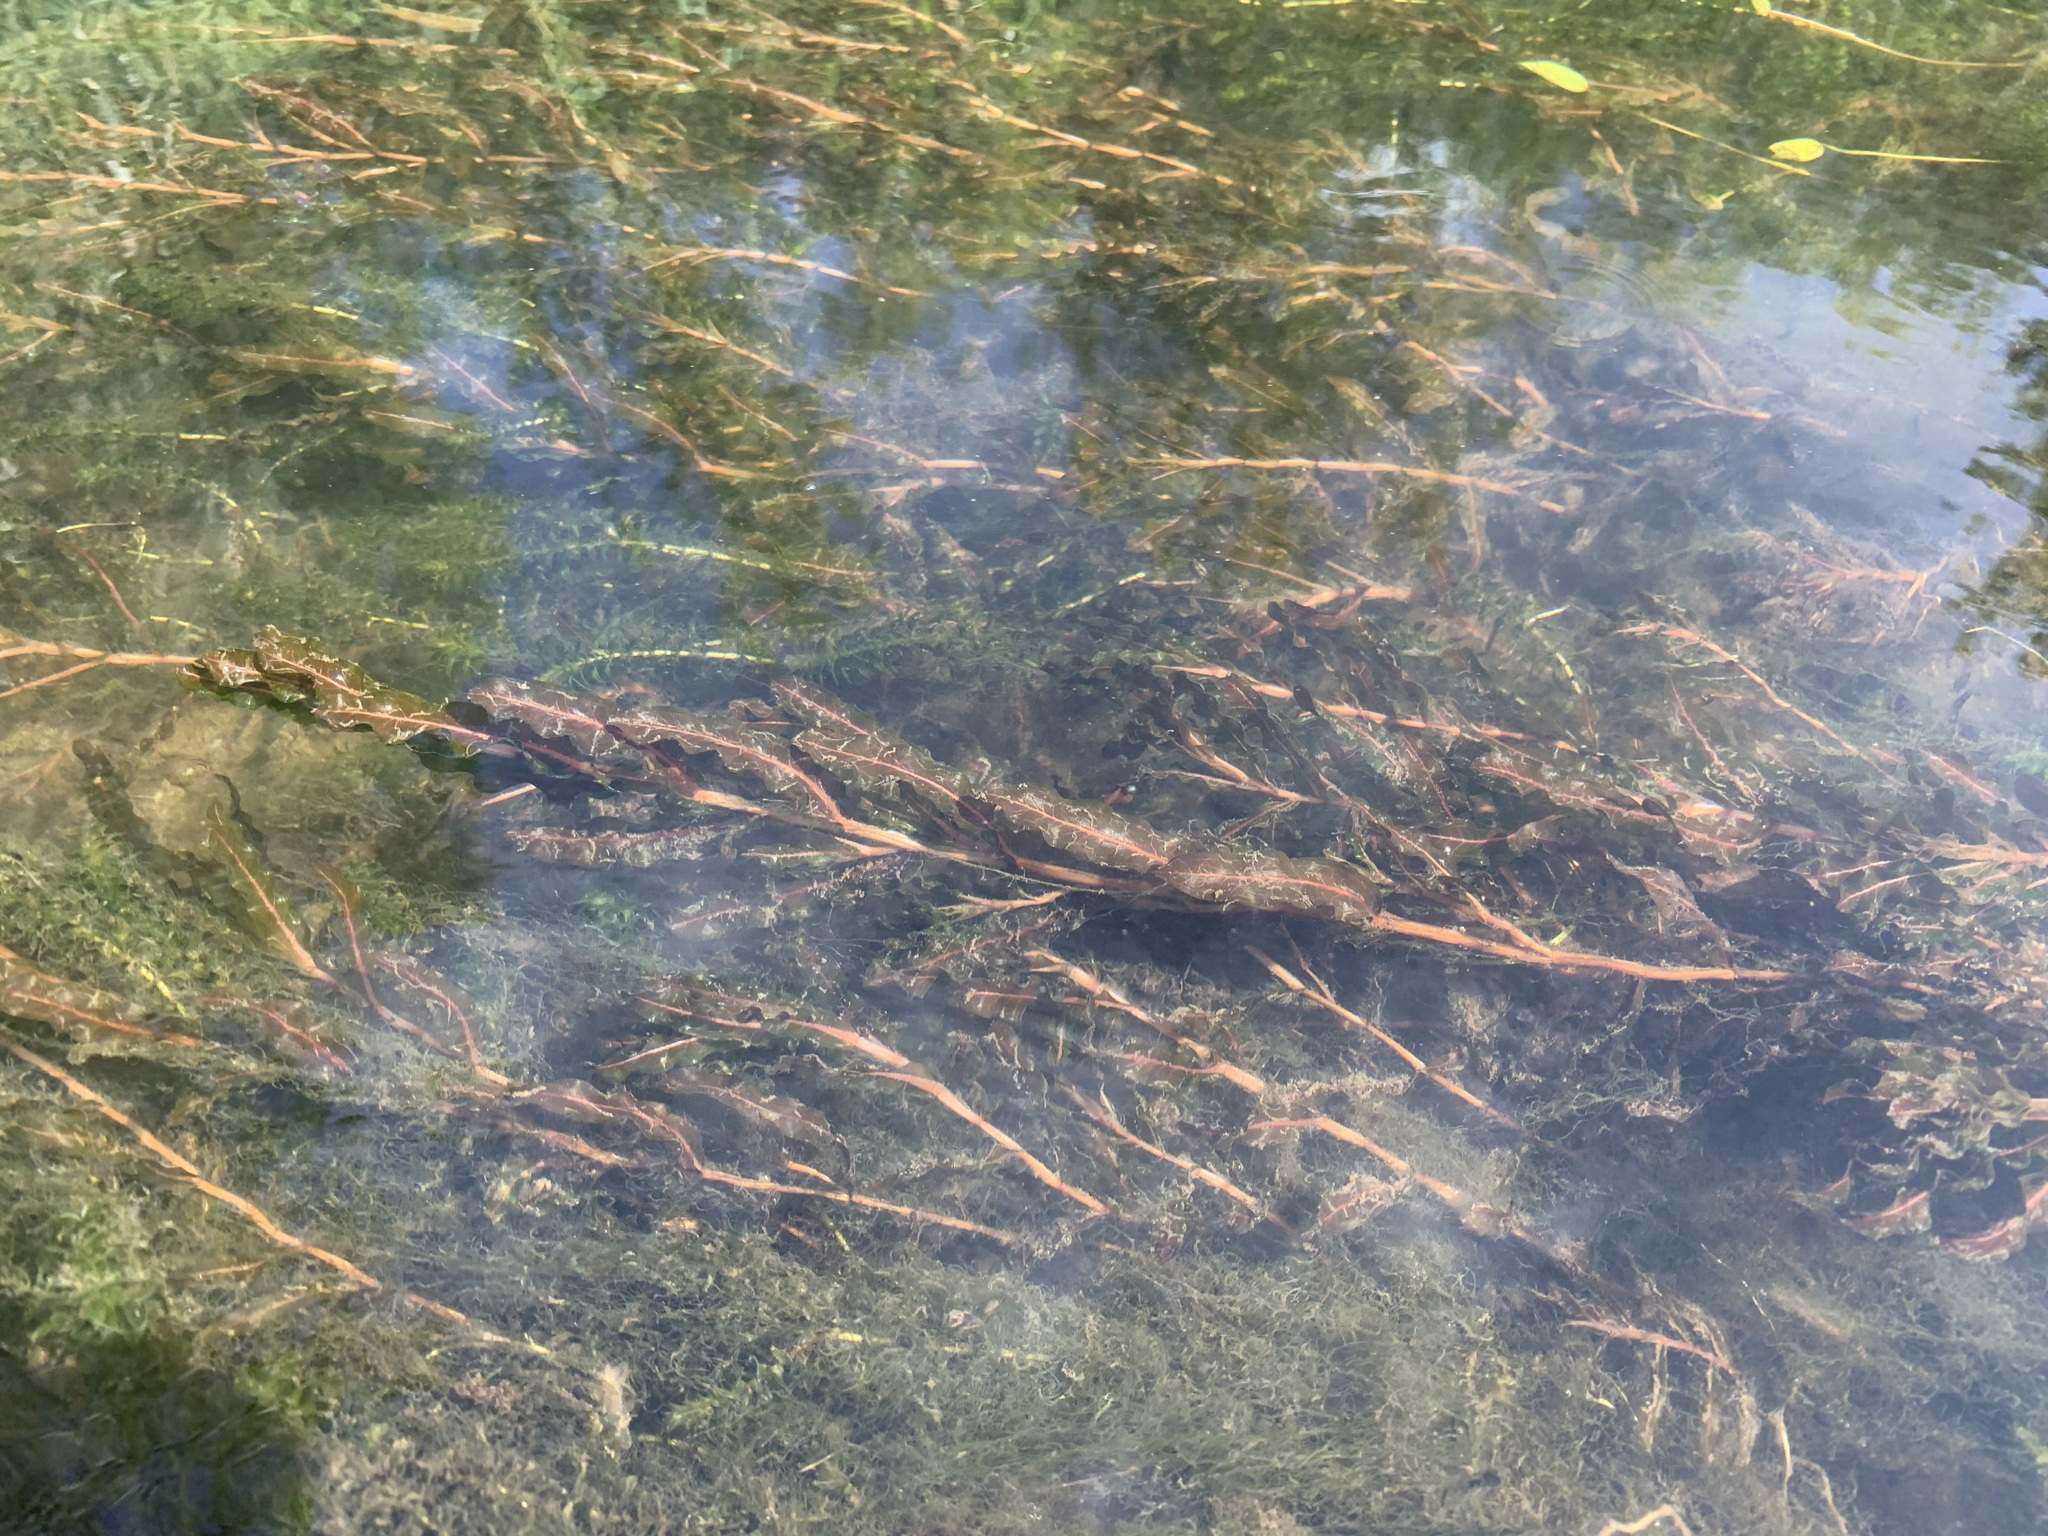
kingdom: Plantae
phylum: Tracheophyta
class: Liliopsida
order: Alismatales
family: Potamogetonaceae
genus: Potamogeton
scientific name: Potamogeton crispus
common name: Curled pondweed
